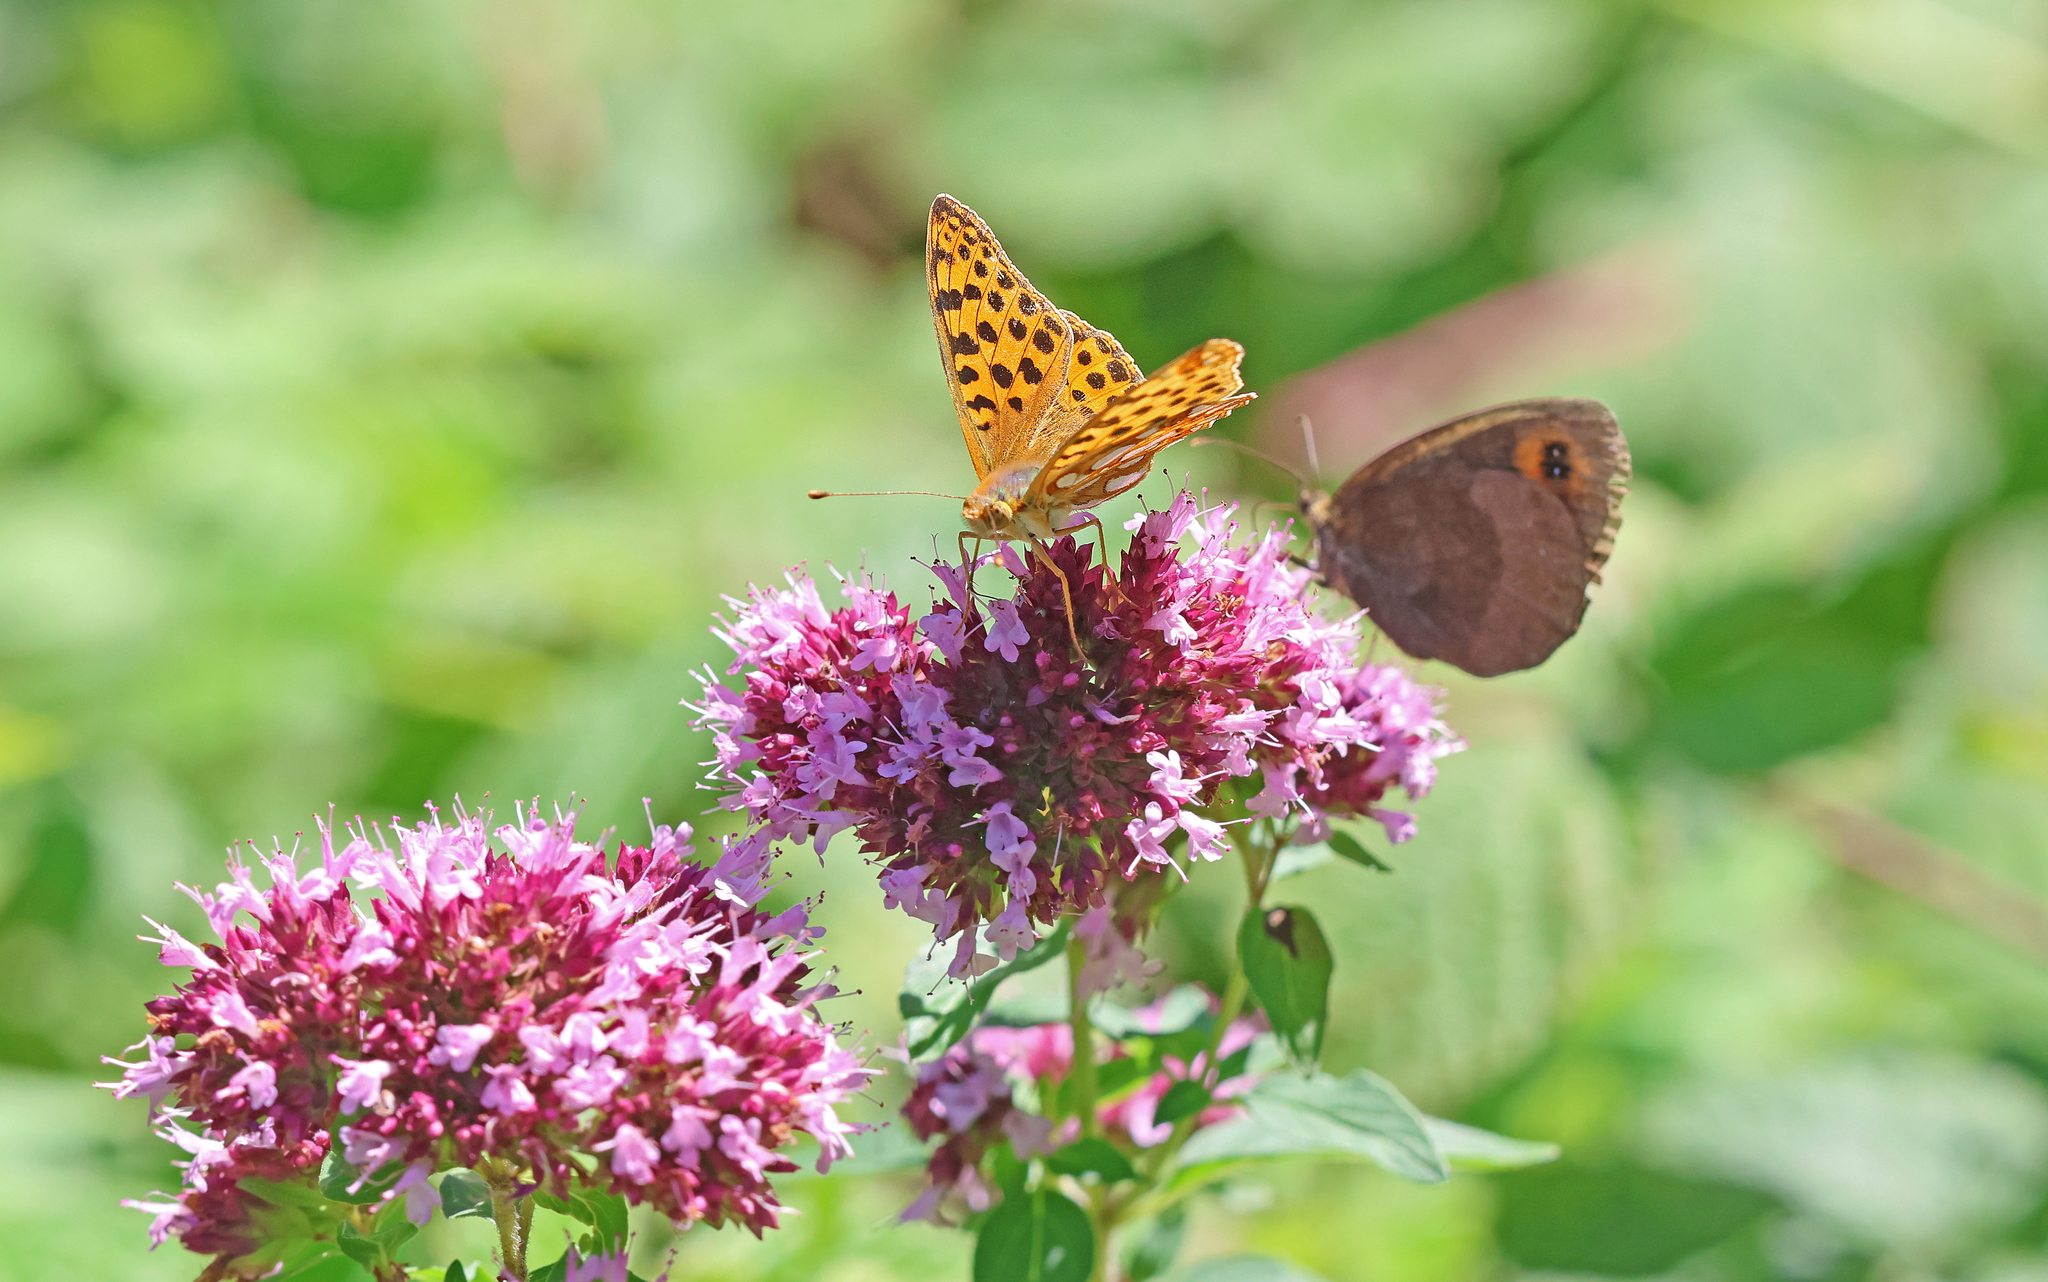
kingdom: Animalia
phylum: Arthropoda
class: Insecta
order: Lepidoptera
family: Nymphalidae
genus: Issoria
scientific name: Issoria lathonia
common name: Queen of spain fritillary
